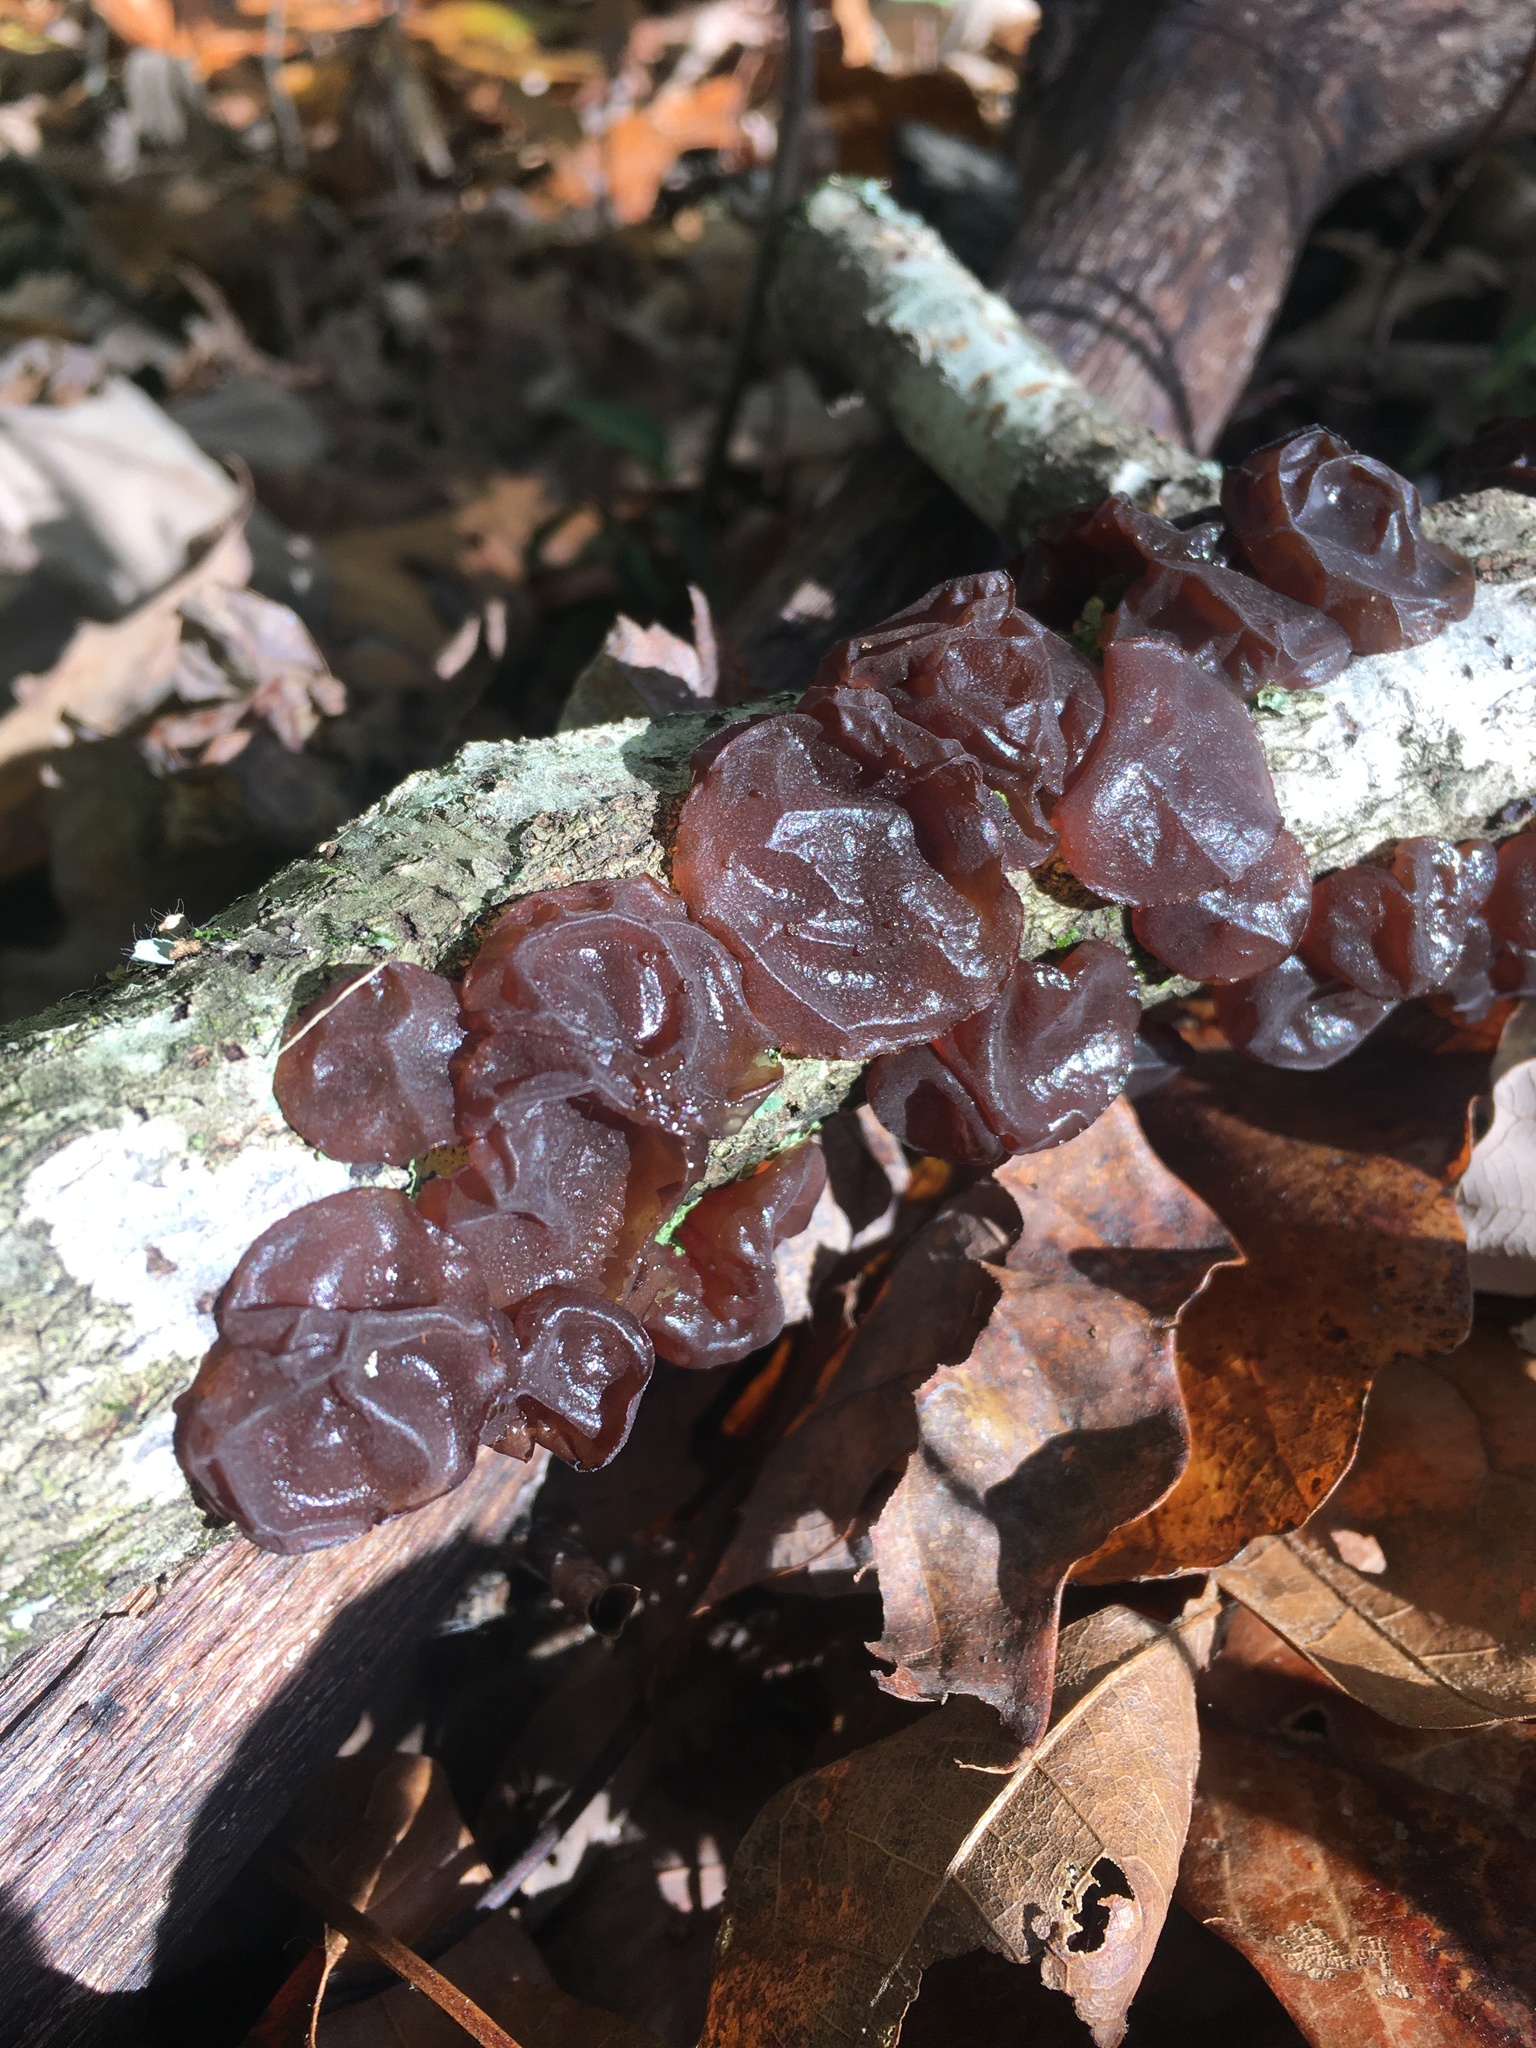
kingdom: Fungi
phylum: Basidiomycota
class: Agaricomycetes
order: Auriculariales
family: Auriculariaceae
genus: Exidia
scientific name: Exidia
